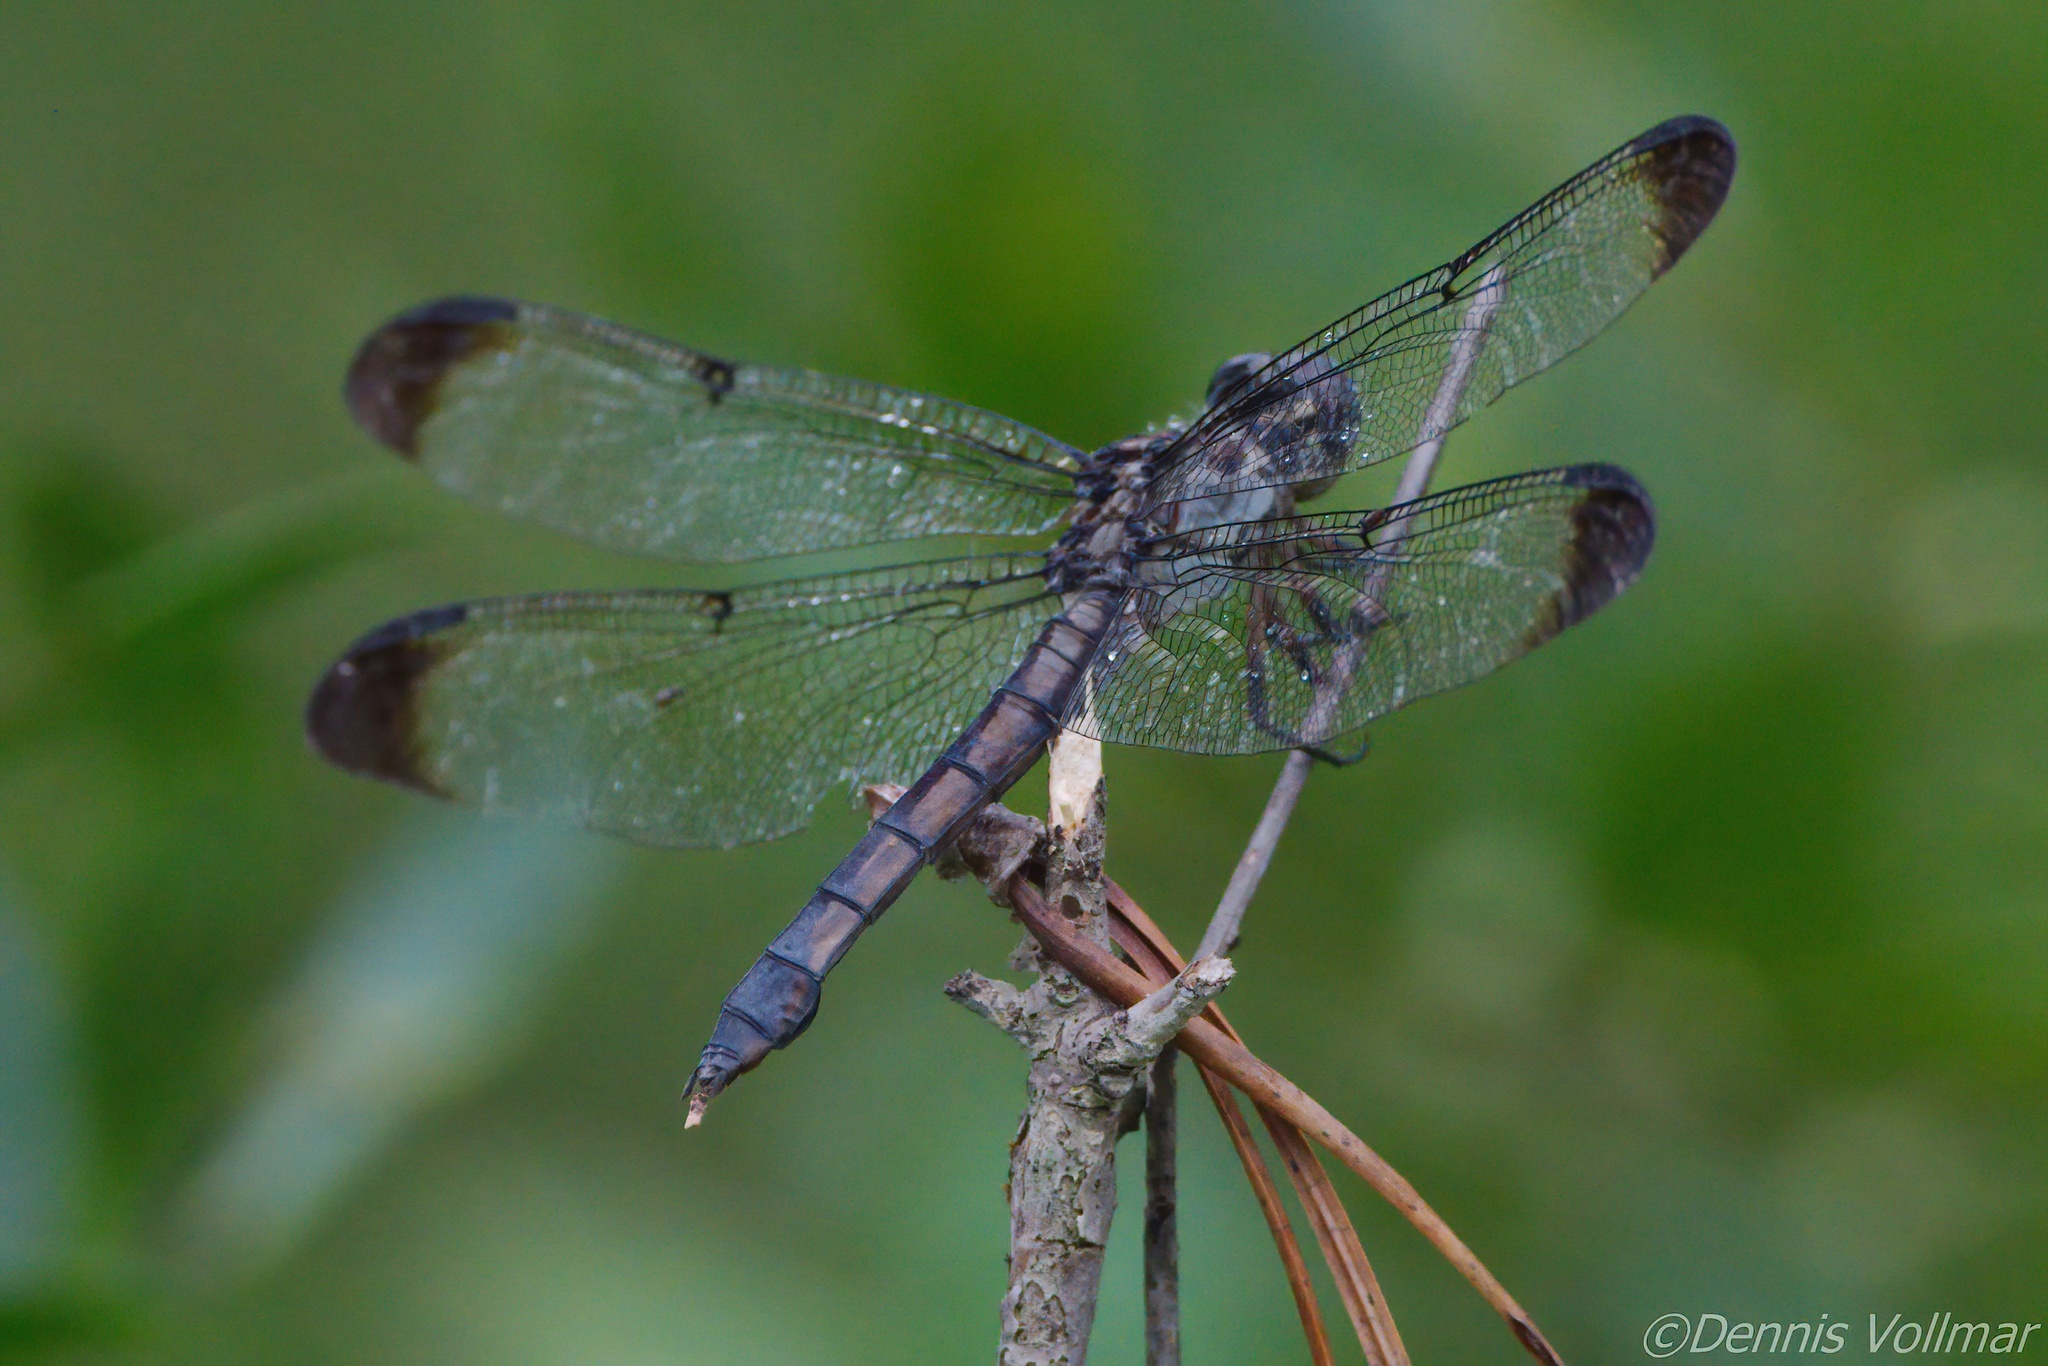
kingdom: Animalia
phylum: Arthropoda
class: Insecta
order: Odonata
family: Libellulidae
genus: Libellula
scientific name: Libellula vibrans
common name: Great blue skimmer
